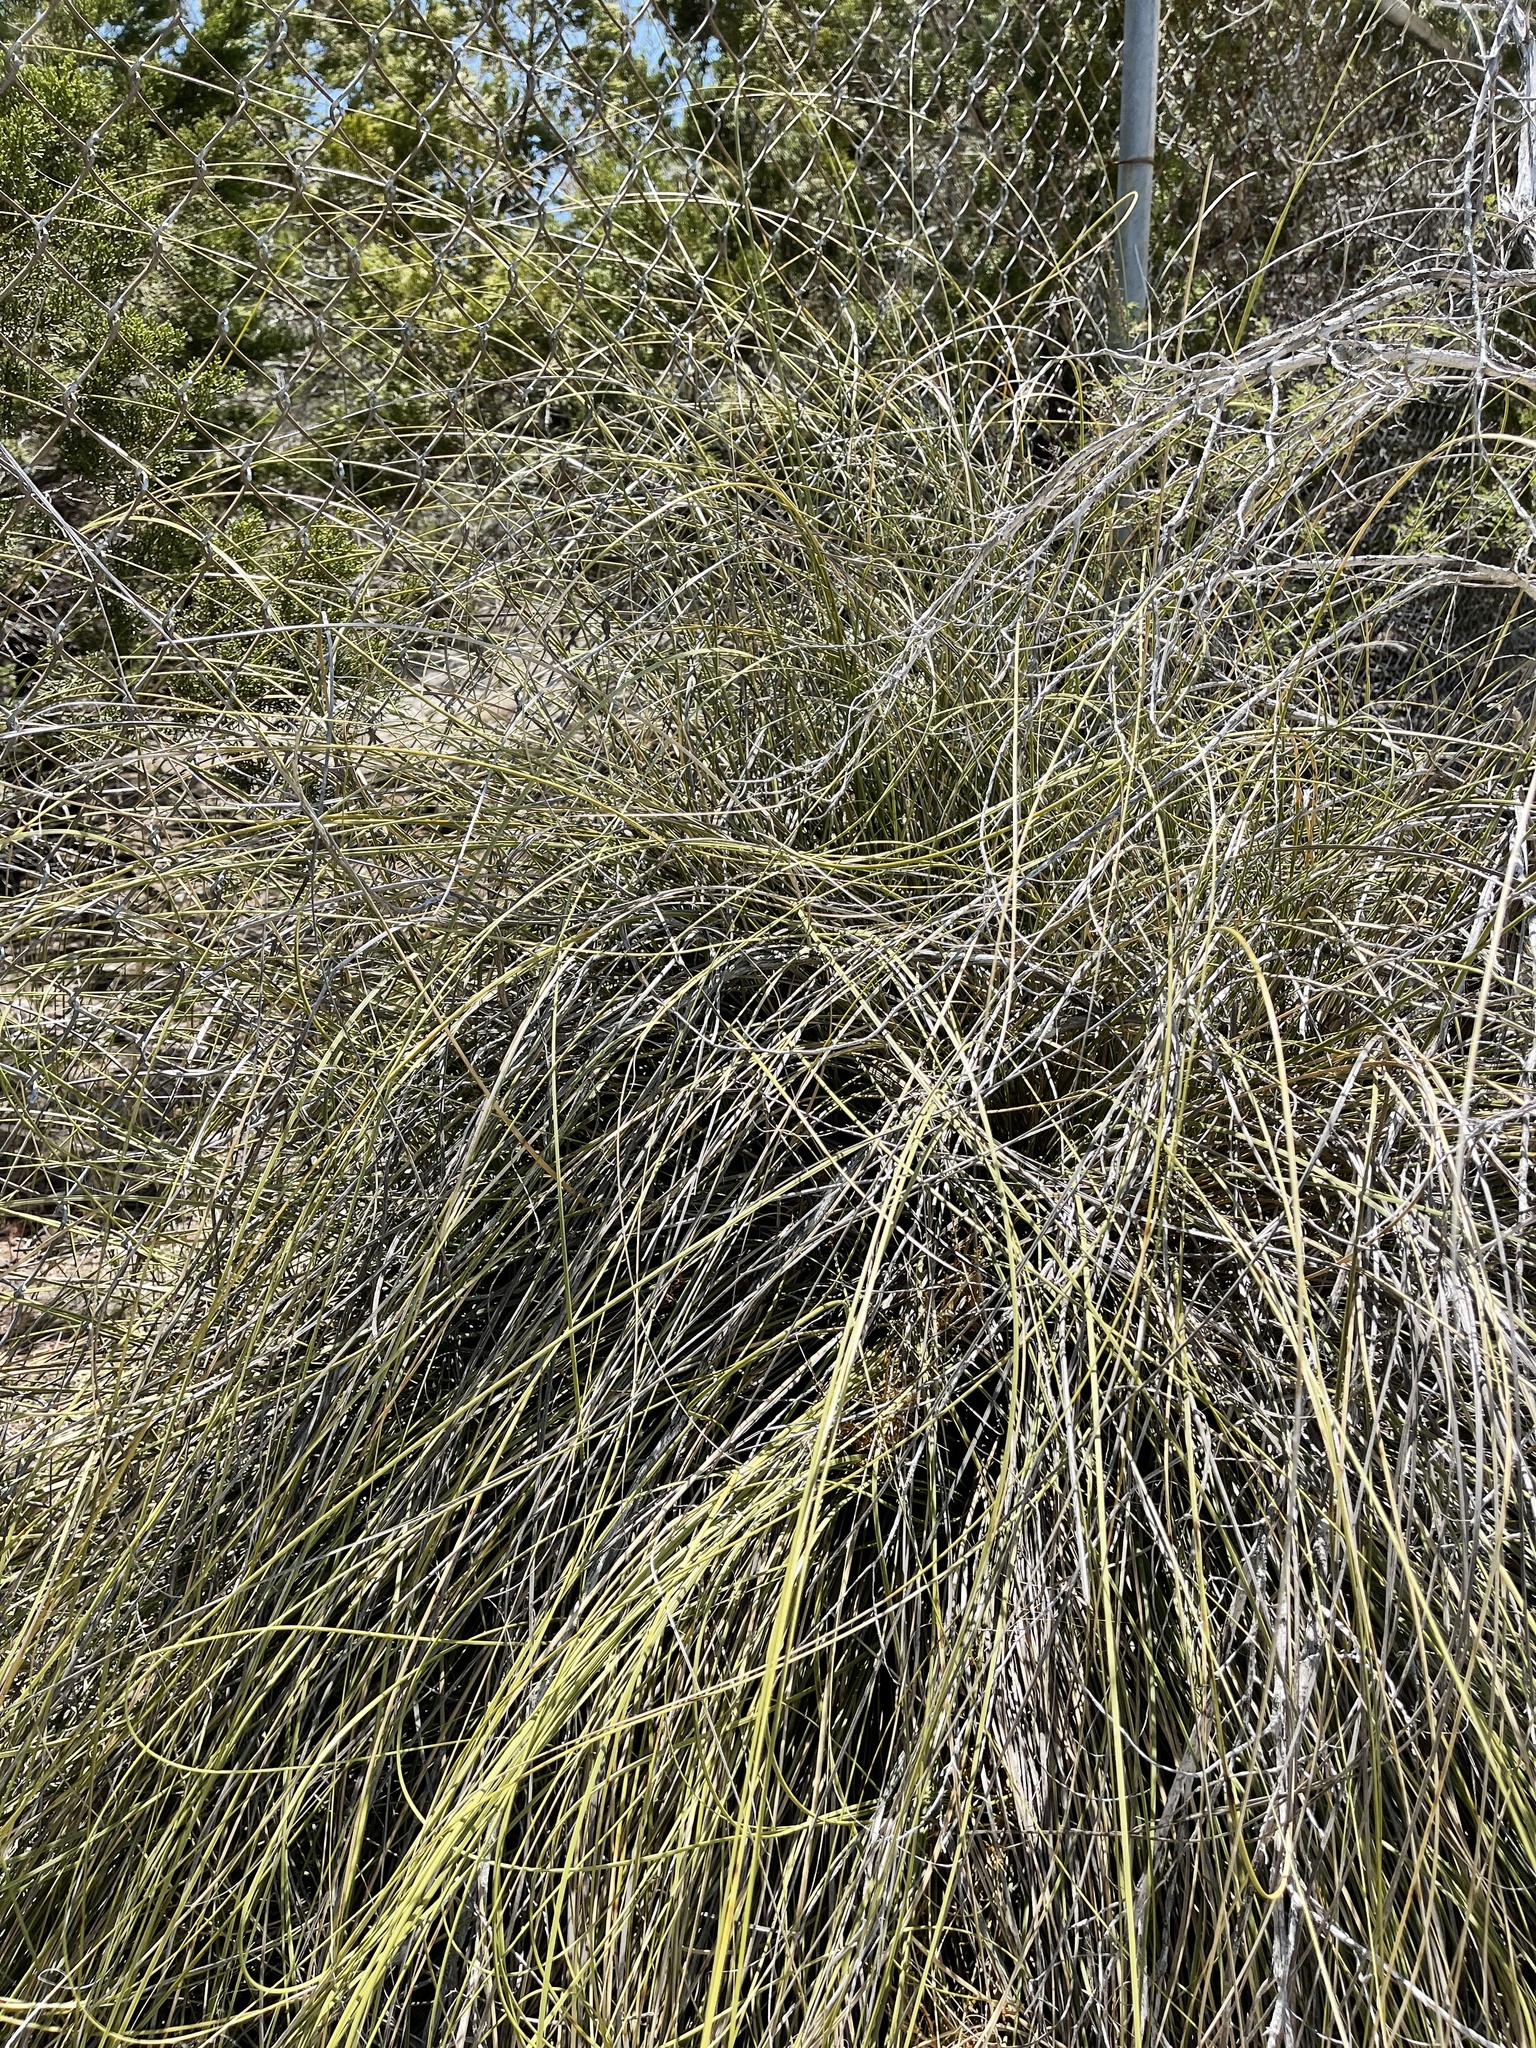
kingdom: Plantae
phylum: Tracheophyta
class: Liliopsida
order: Asparagales
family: Asparagaceae
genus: Nolina
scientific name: Nolina texana
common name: Texas sacahuiste
